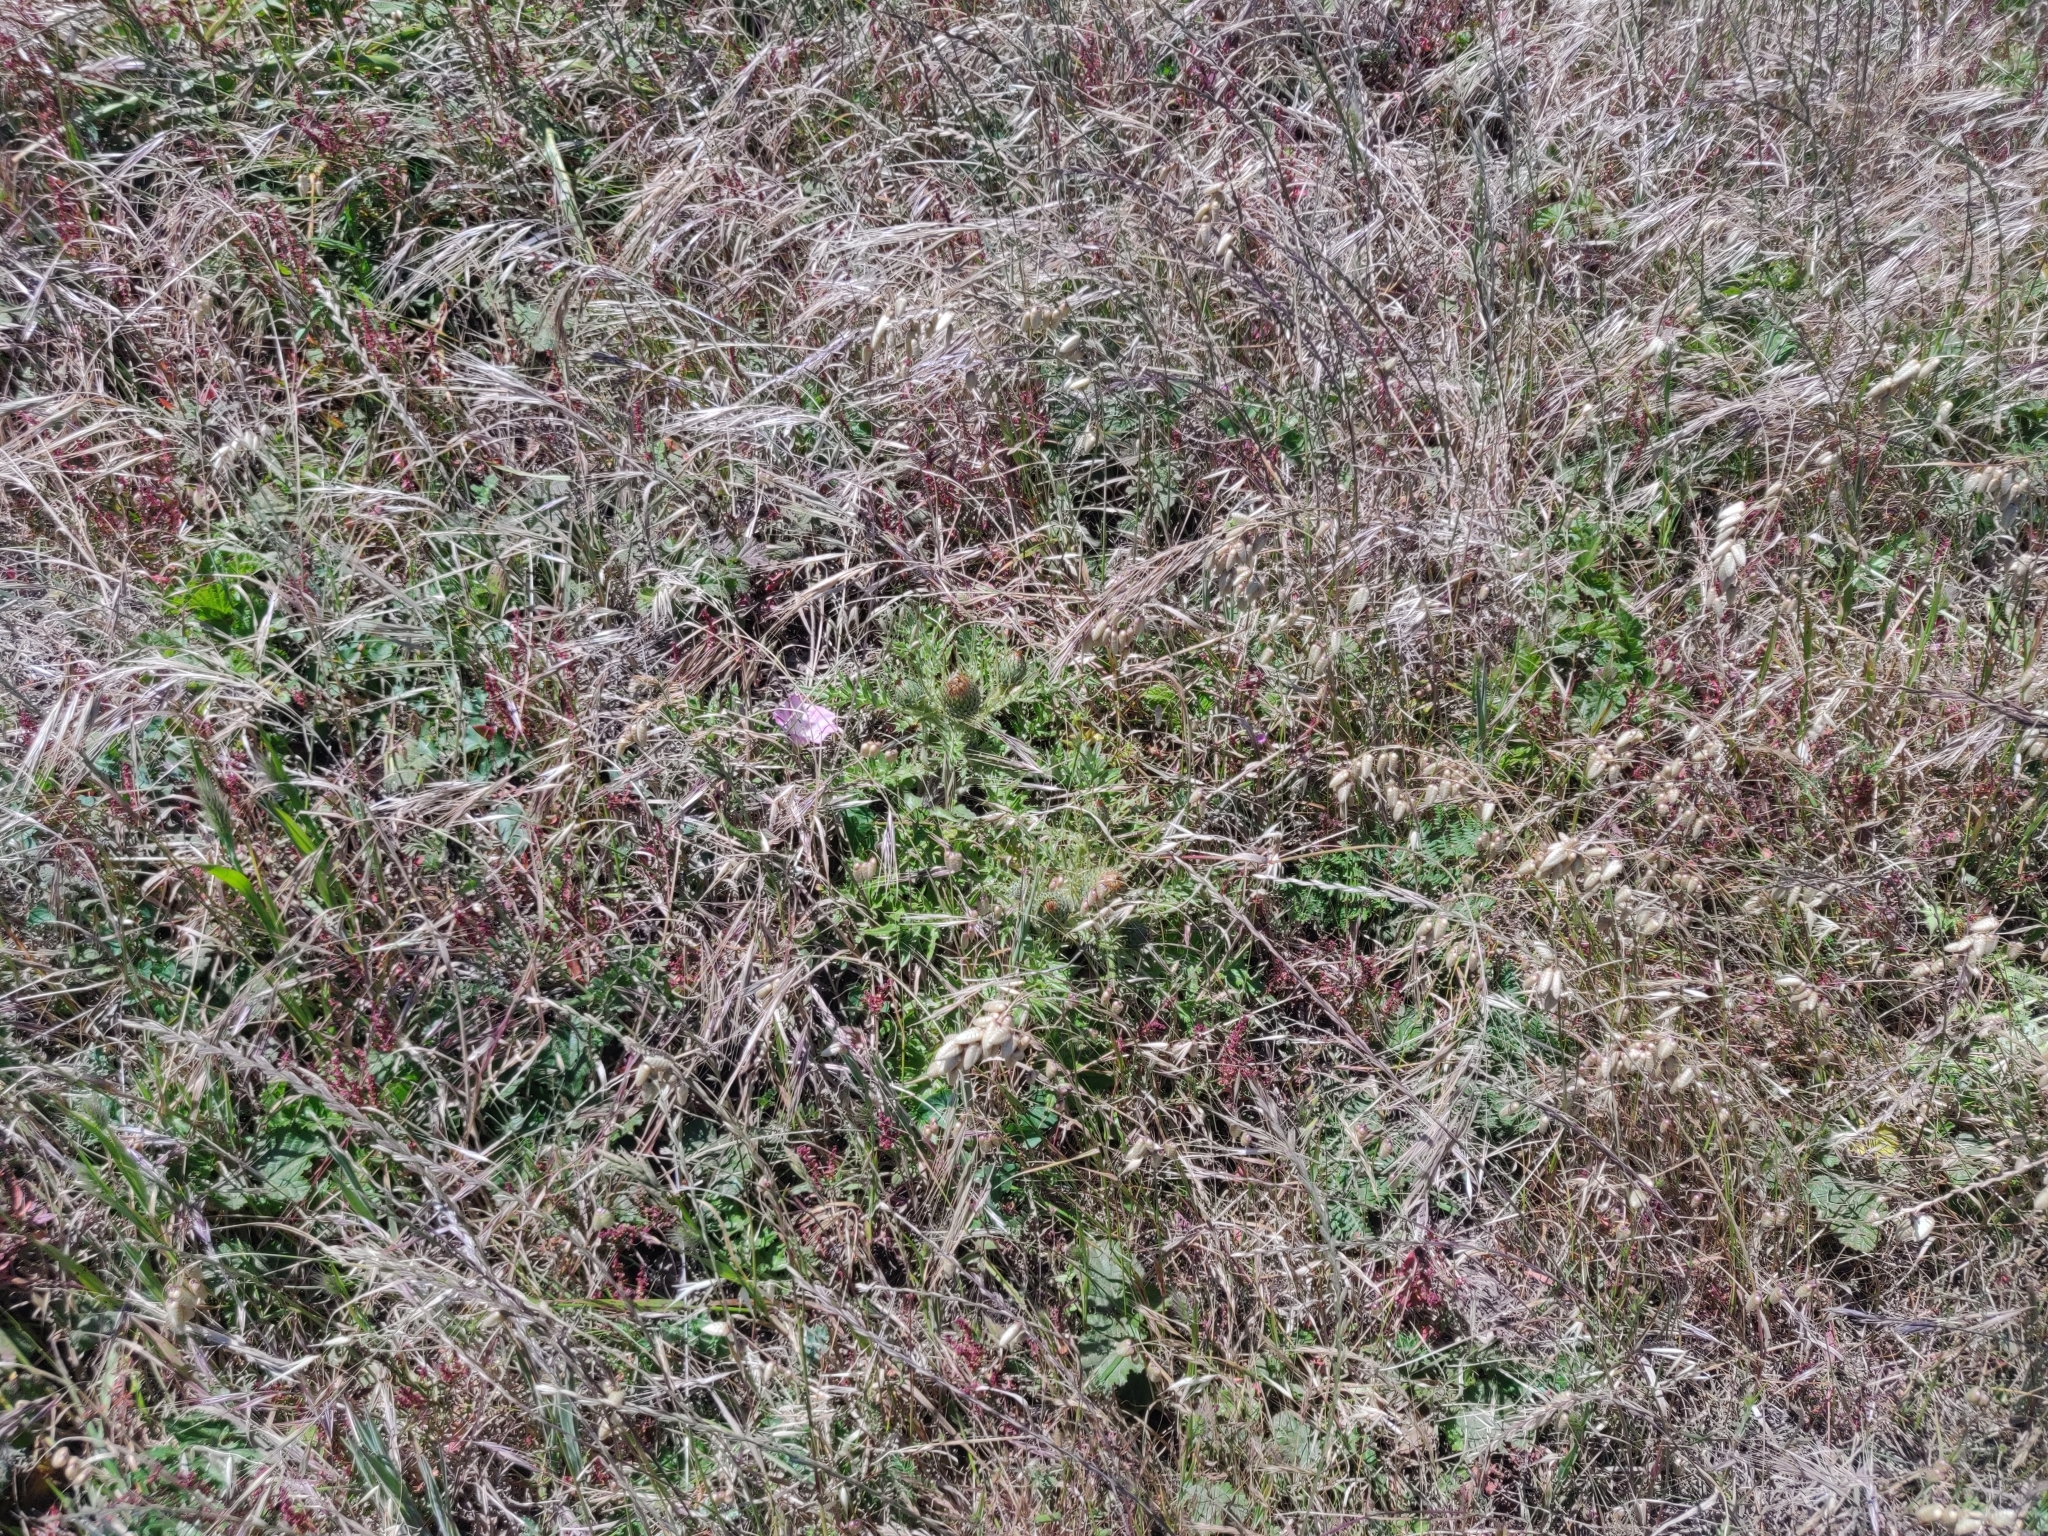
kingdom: Plantae
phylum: Tracheophyta
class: Magnoliopsida
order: Asterales
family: Asteraceae
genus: Cirsium
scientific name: Cirsium quercetorum
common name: Alameda county thistle
